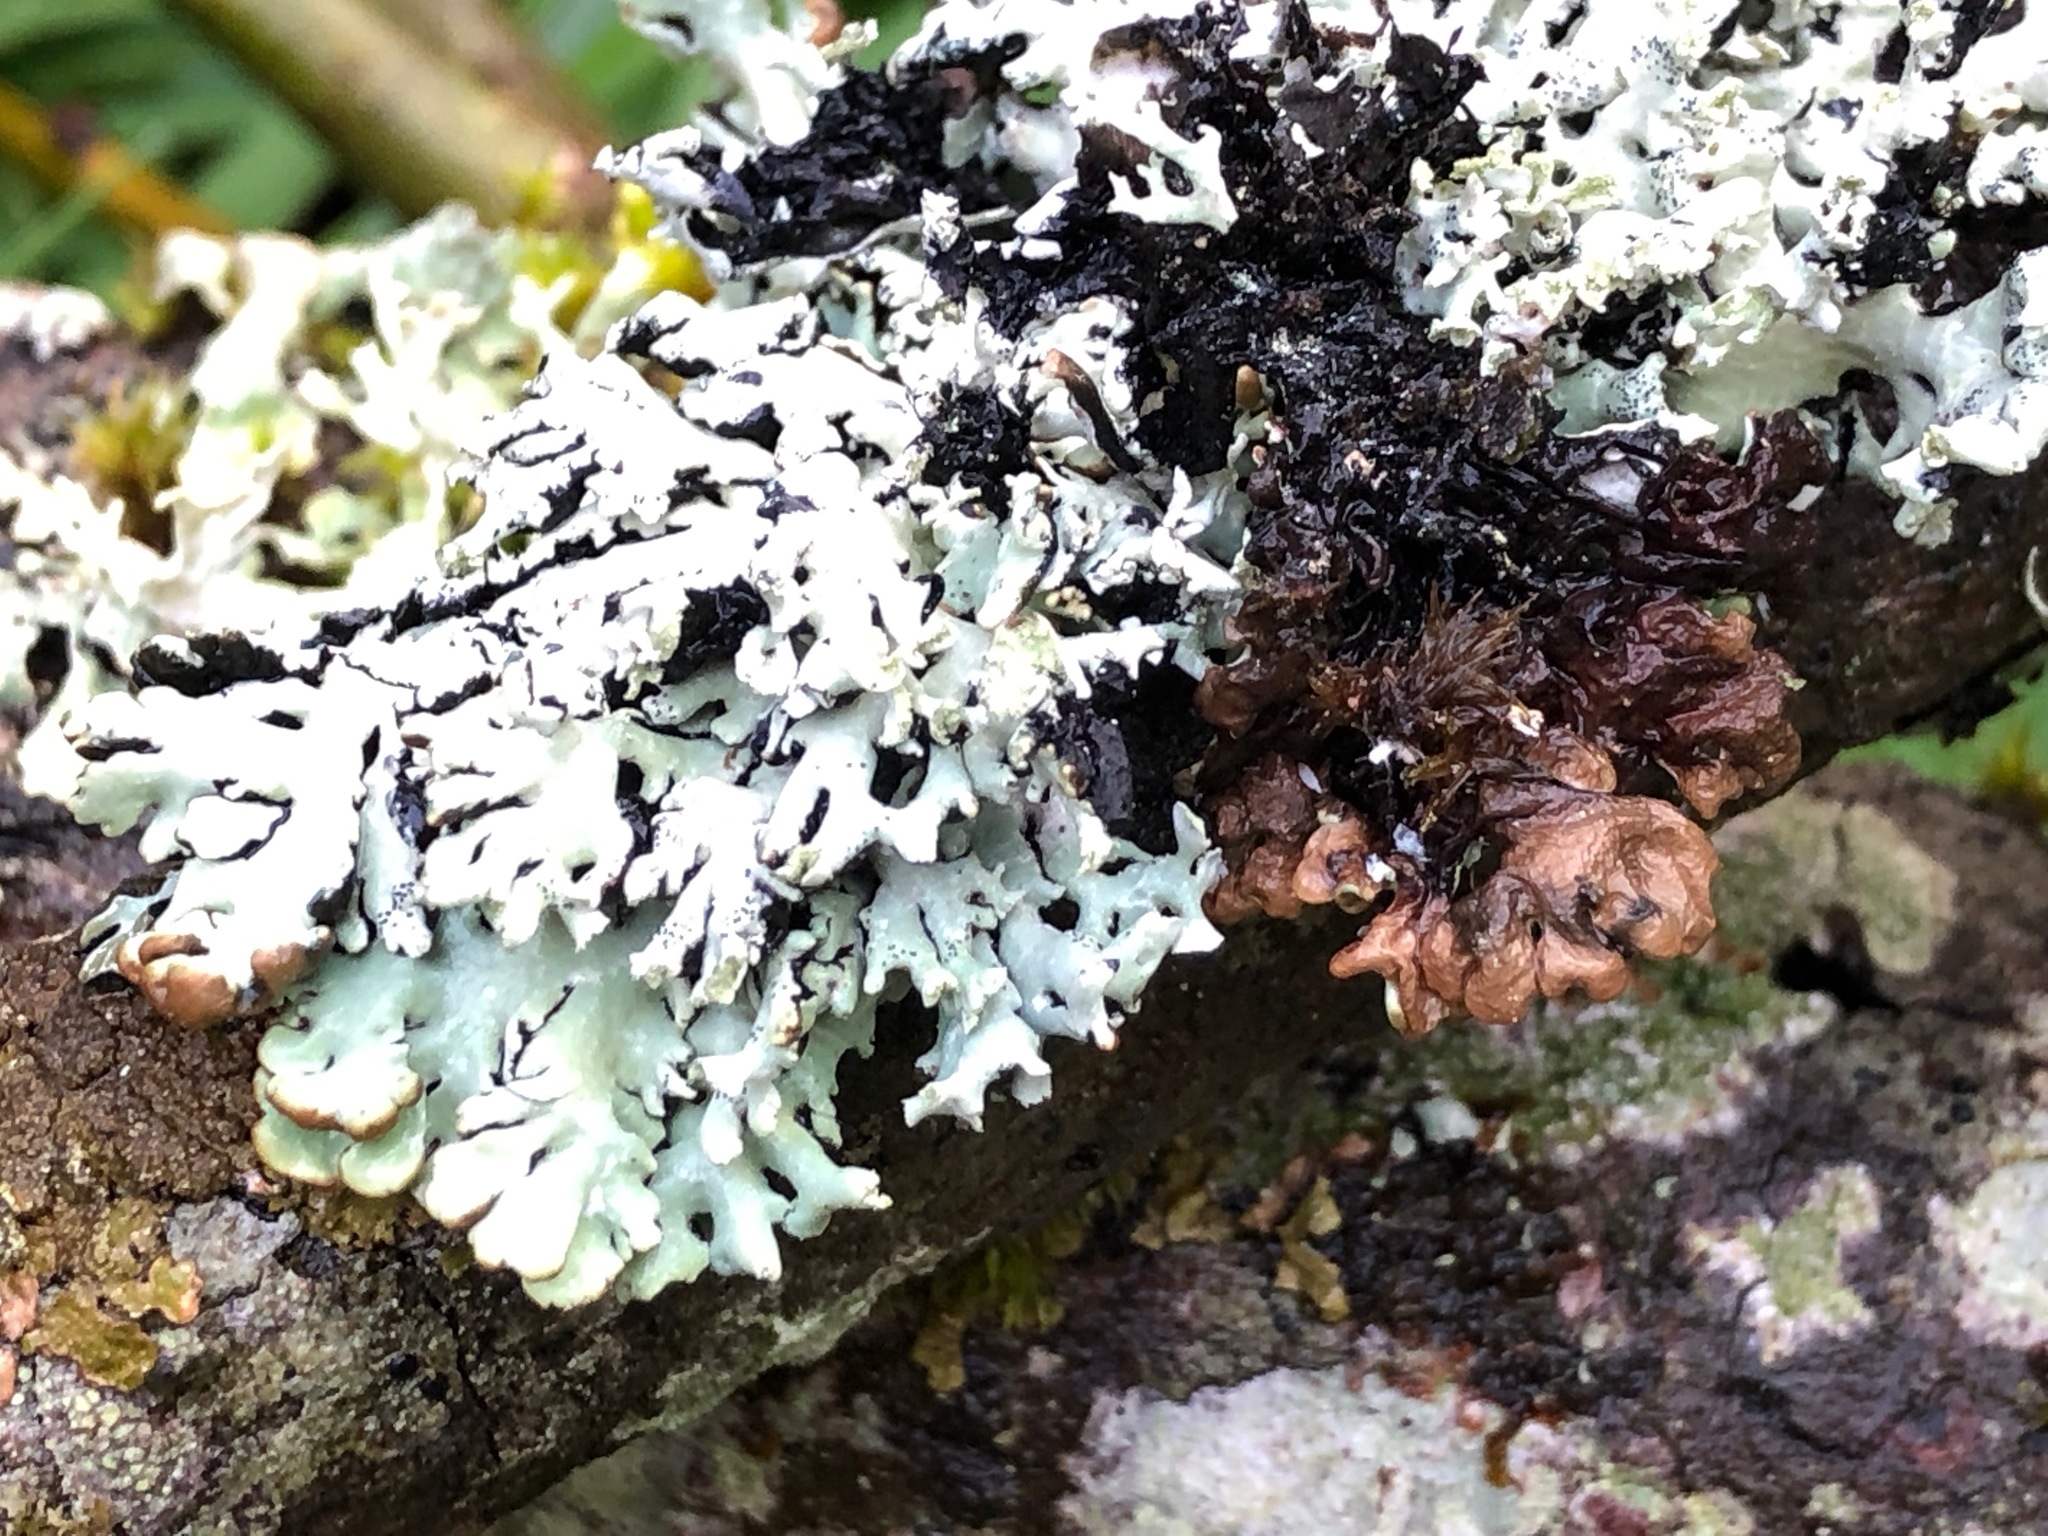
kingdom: Fungi
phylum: Ascomycota
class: Lecanoromycetes
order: Lecanorales
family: Parmeliaceae
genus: Hypogymnia
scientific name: Hypogymnia physodes
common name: Dark crottle
